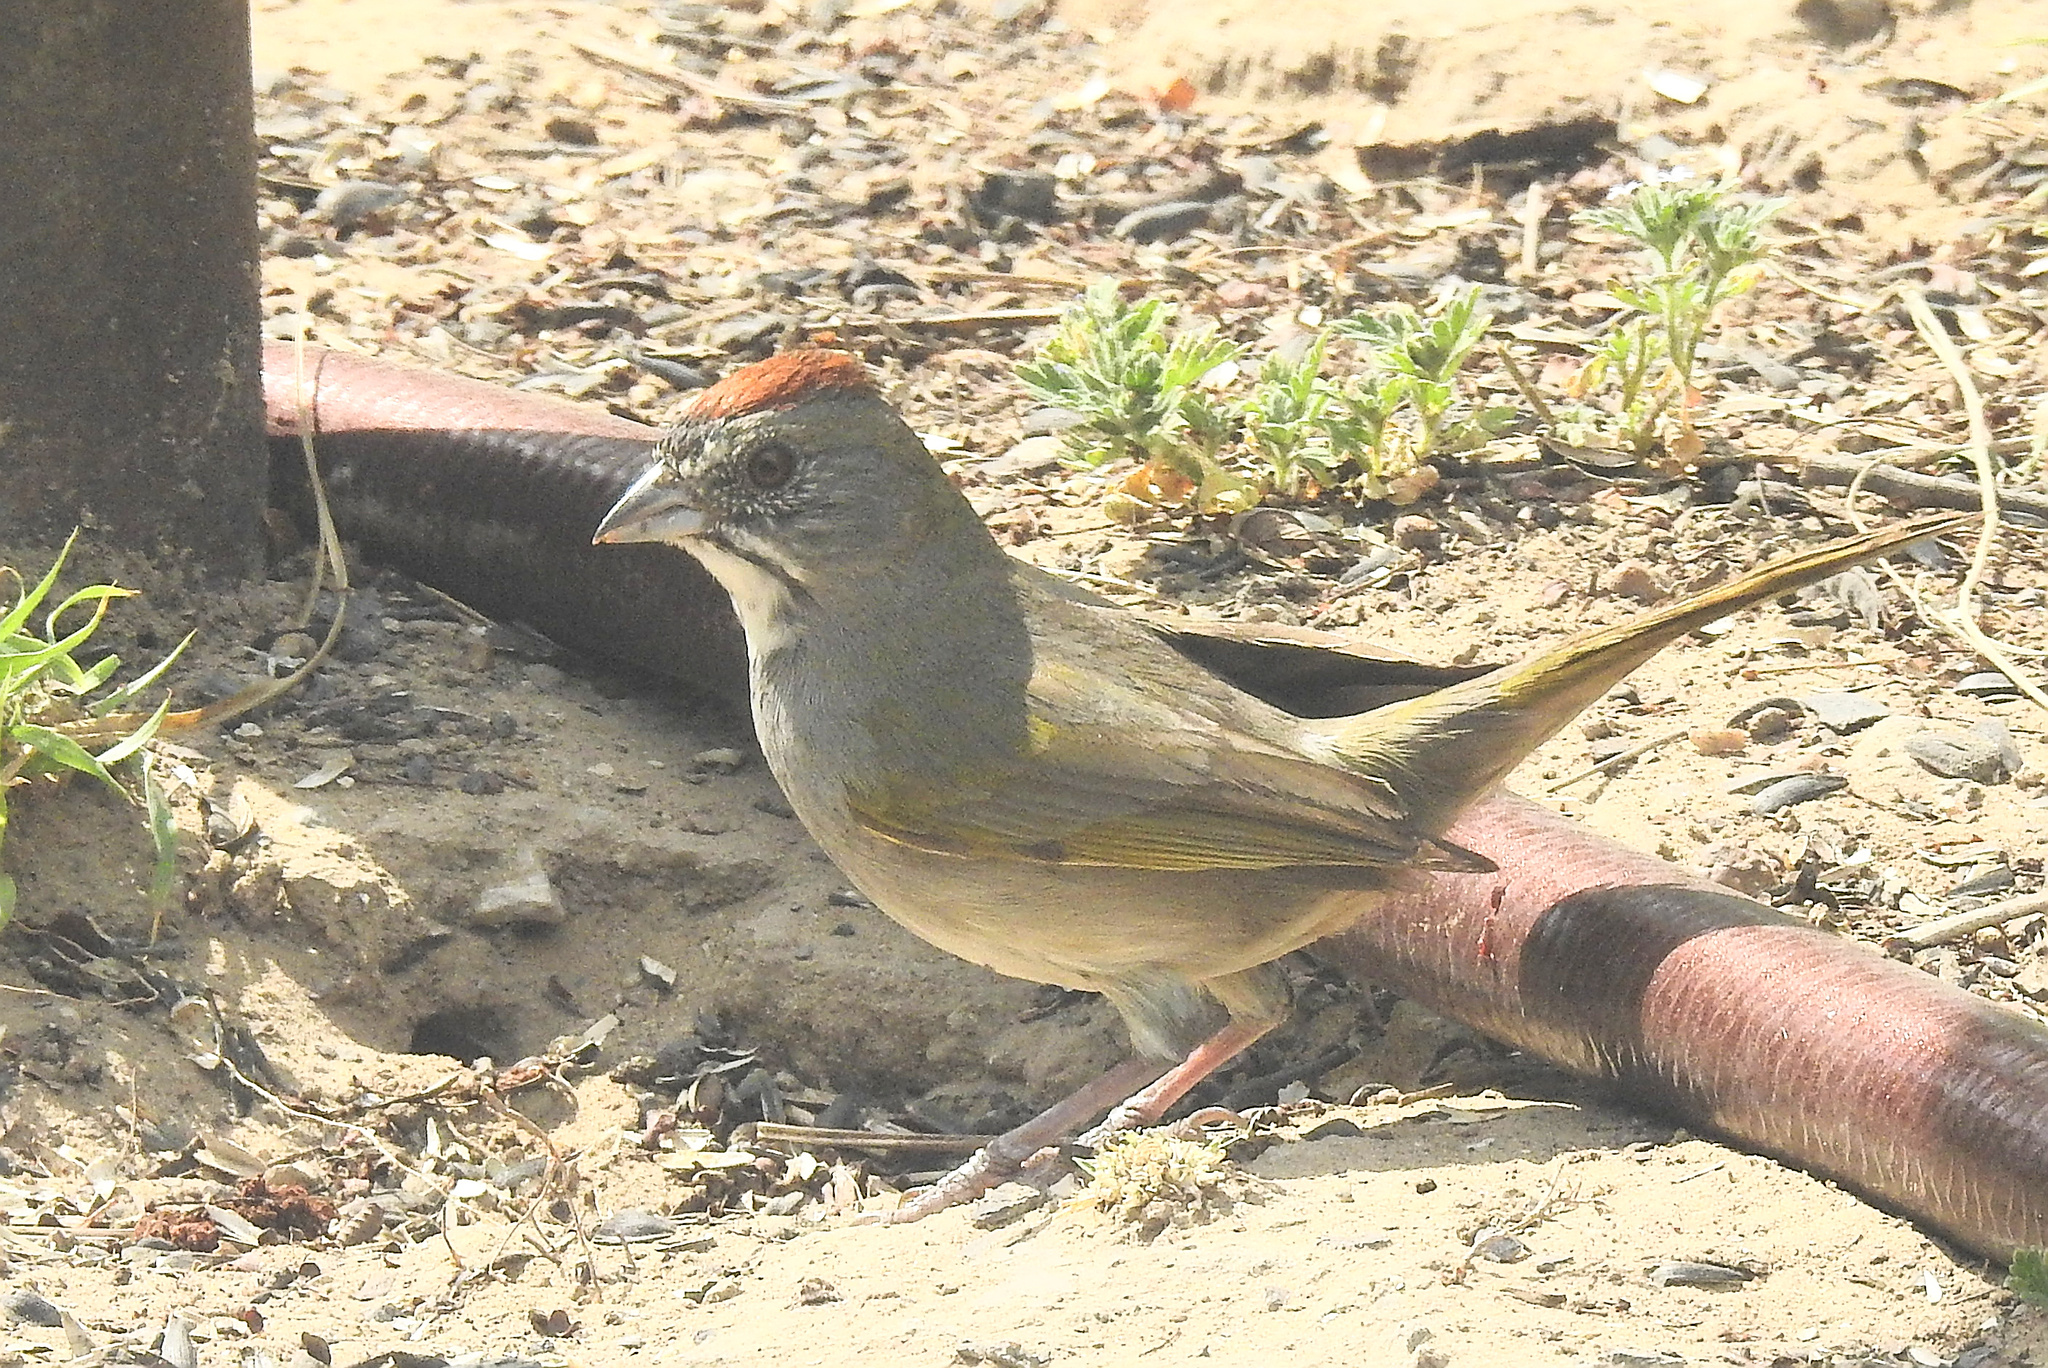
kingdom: Animalia
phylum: Chordata
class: Aves
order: Passeriformes
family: Passerellidae
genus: Pipilo
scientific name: Pipilo chlorurus
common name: Green-tailed towhee
